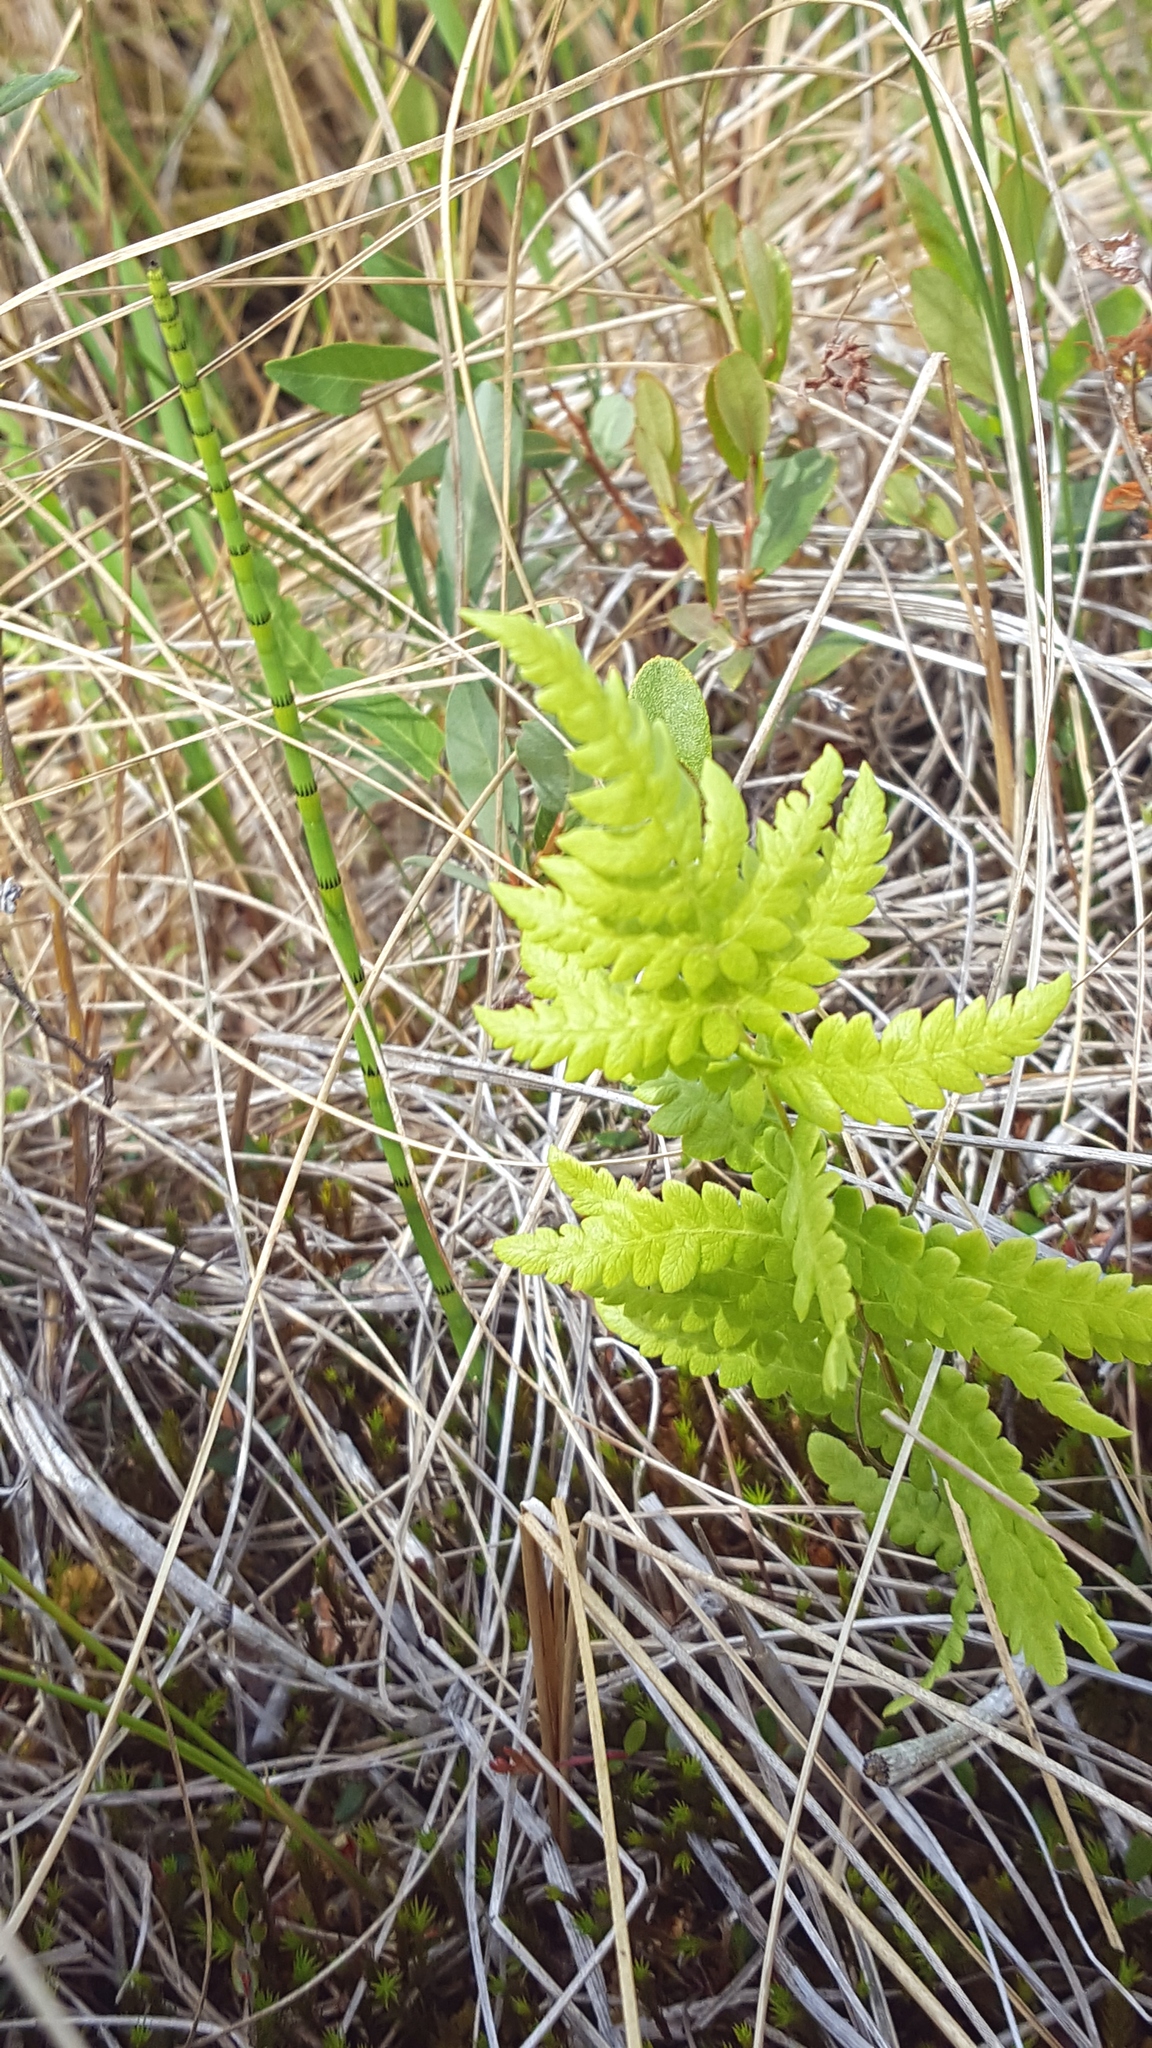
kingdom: Plantae
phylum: Tracheophyta
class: Polypodiopsida
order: Polypodiales
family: Thelypteridaceae
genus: Thelypteris
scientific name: Thelypteris palustris
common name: Marsh fern
